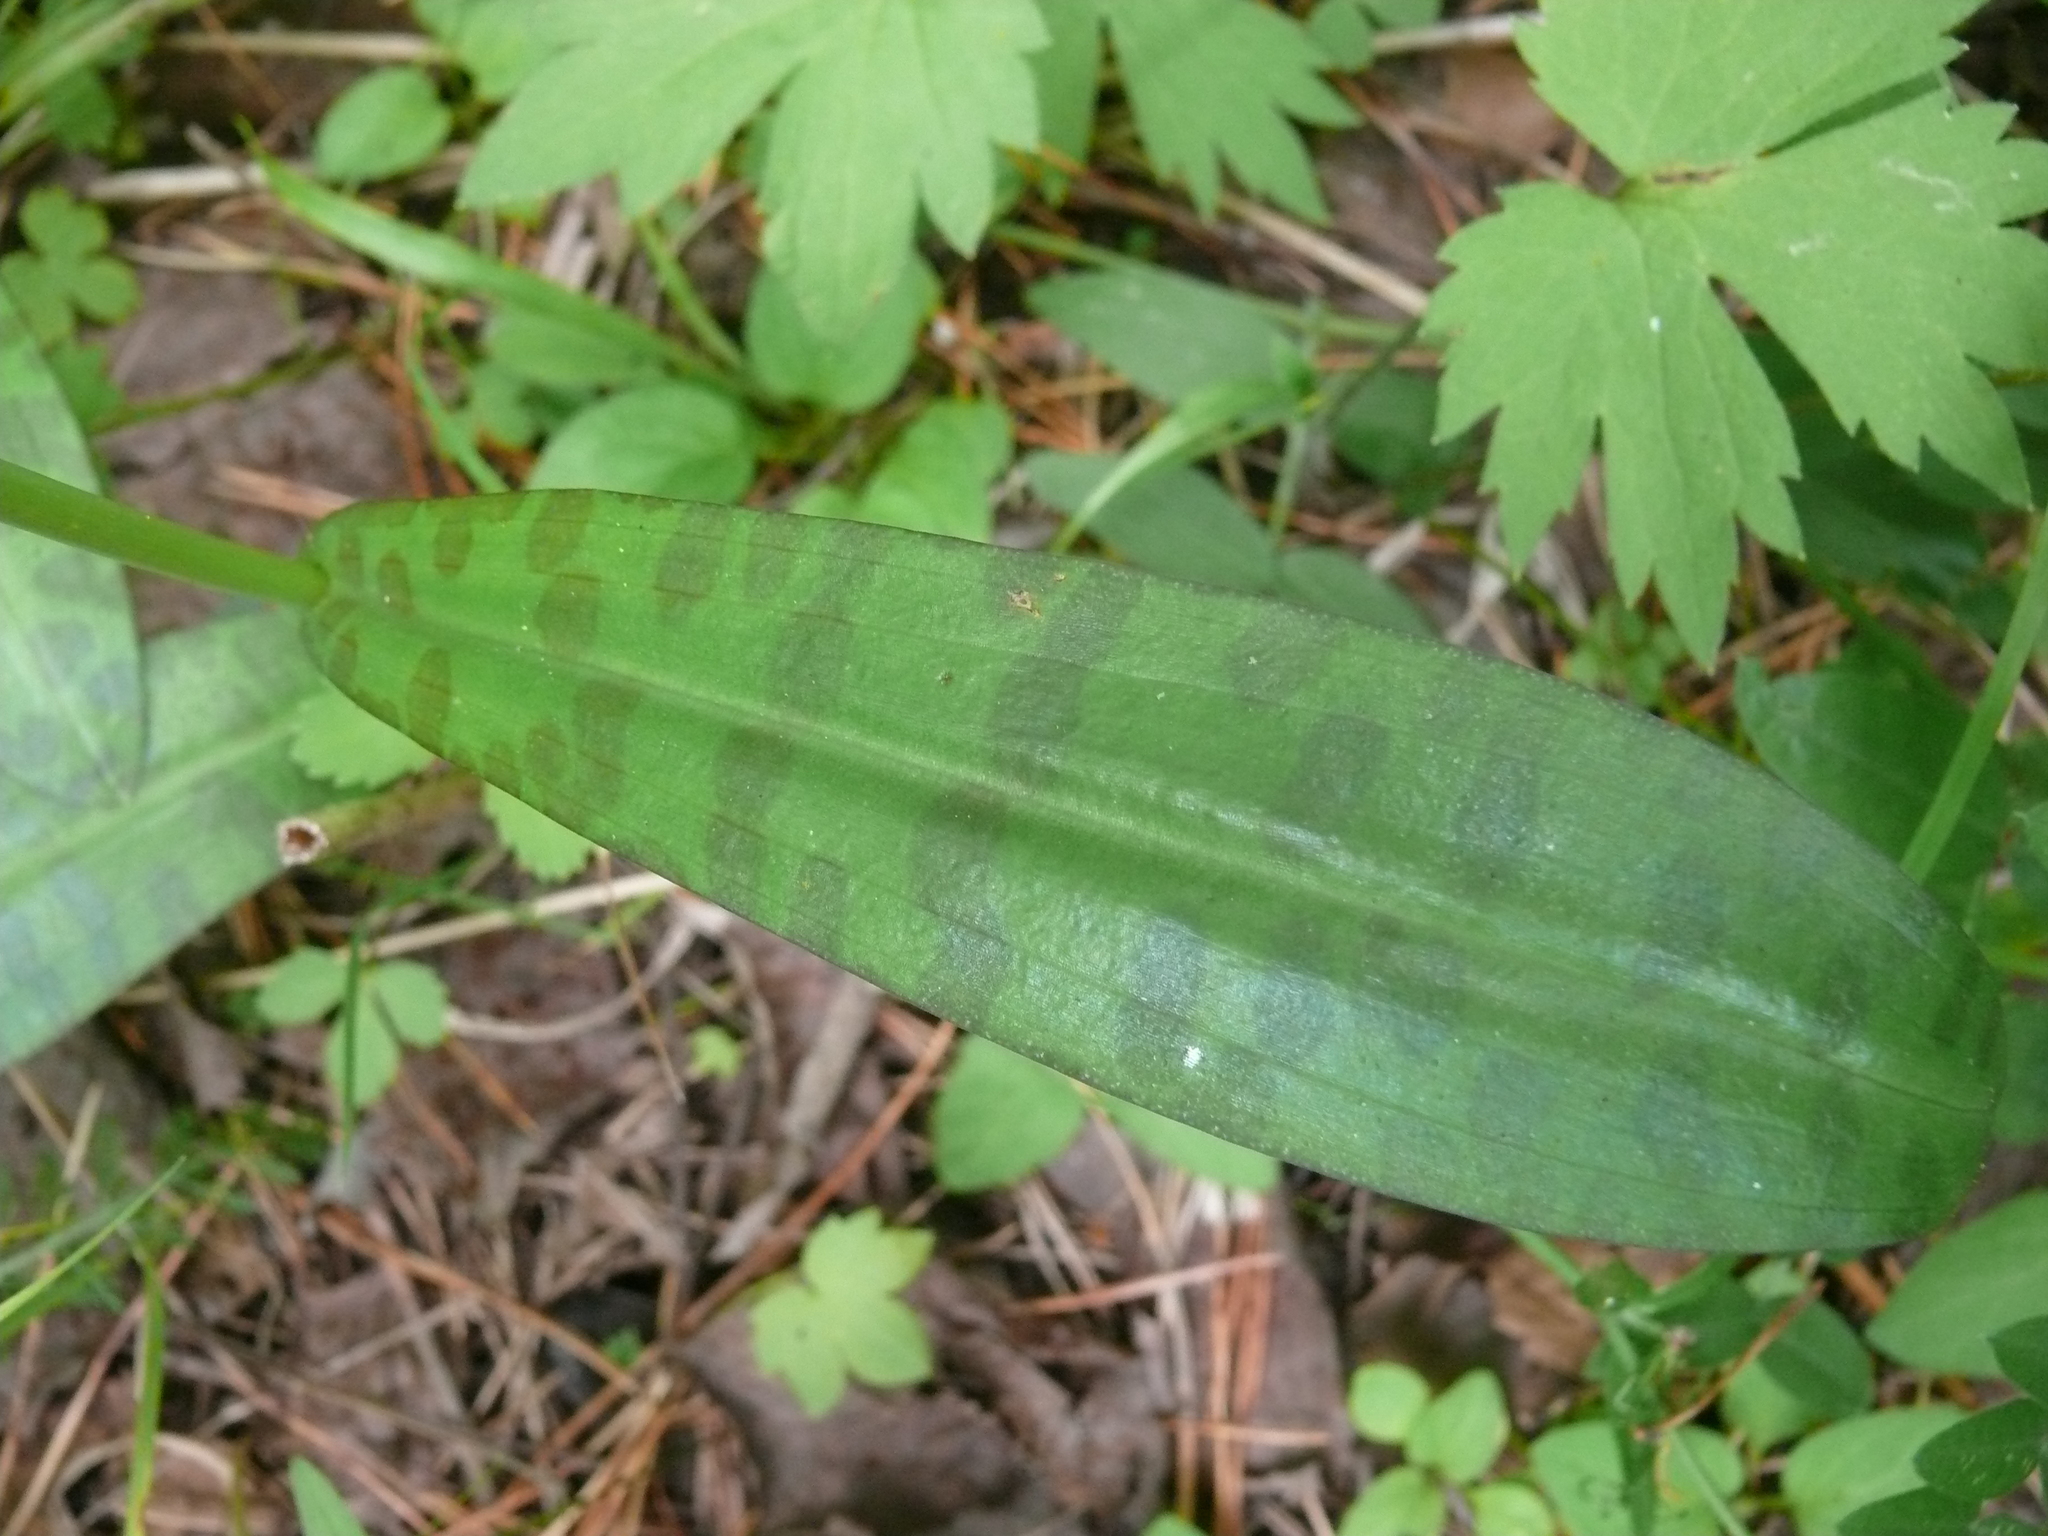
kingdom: Plantae
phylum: Tracheophyta
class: Liliopsida
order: Asparagales
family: Orchidaceae
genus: Dactylorhiza
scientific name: Dactylorhiza maculata
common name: Heath spotted-orchid
